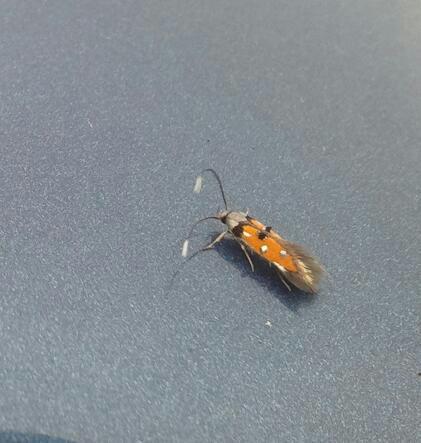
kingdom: Animalia
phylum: Arthropoda
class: Insecta
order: Lepidoptera
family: Elachistidae
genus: Chrysoclista
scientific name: Chrysoclista linneela
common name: Lime cosmet
